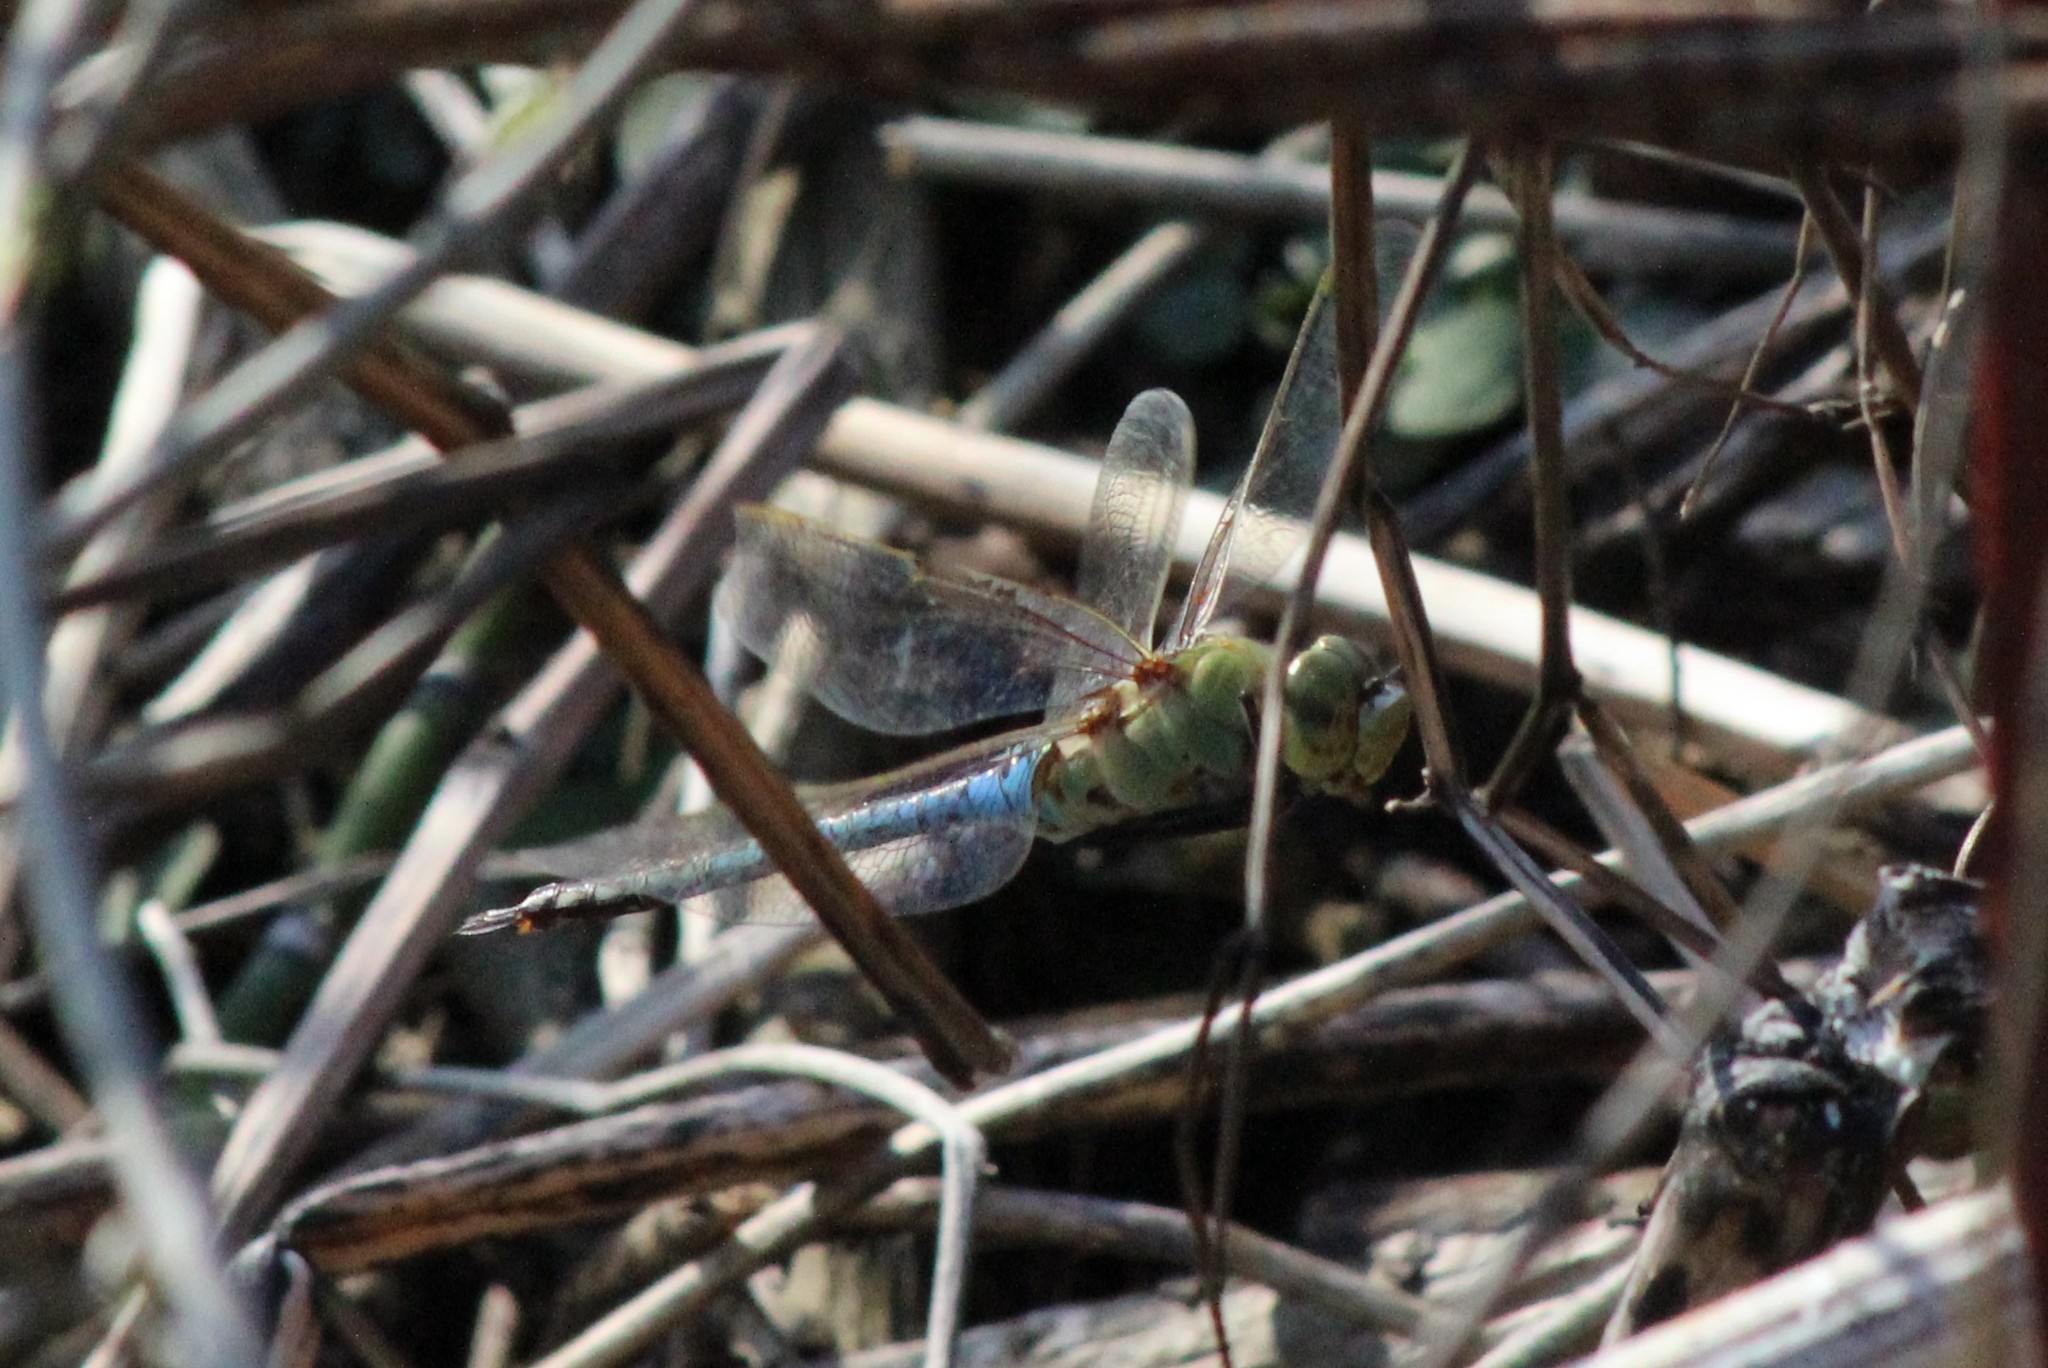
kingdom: Animalia
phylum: Arthropoda
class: Insecta
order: Odonata
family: Aeshnidae
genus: Anax
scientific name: Anax junius
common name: Common green darner
